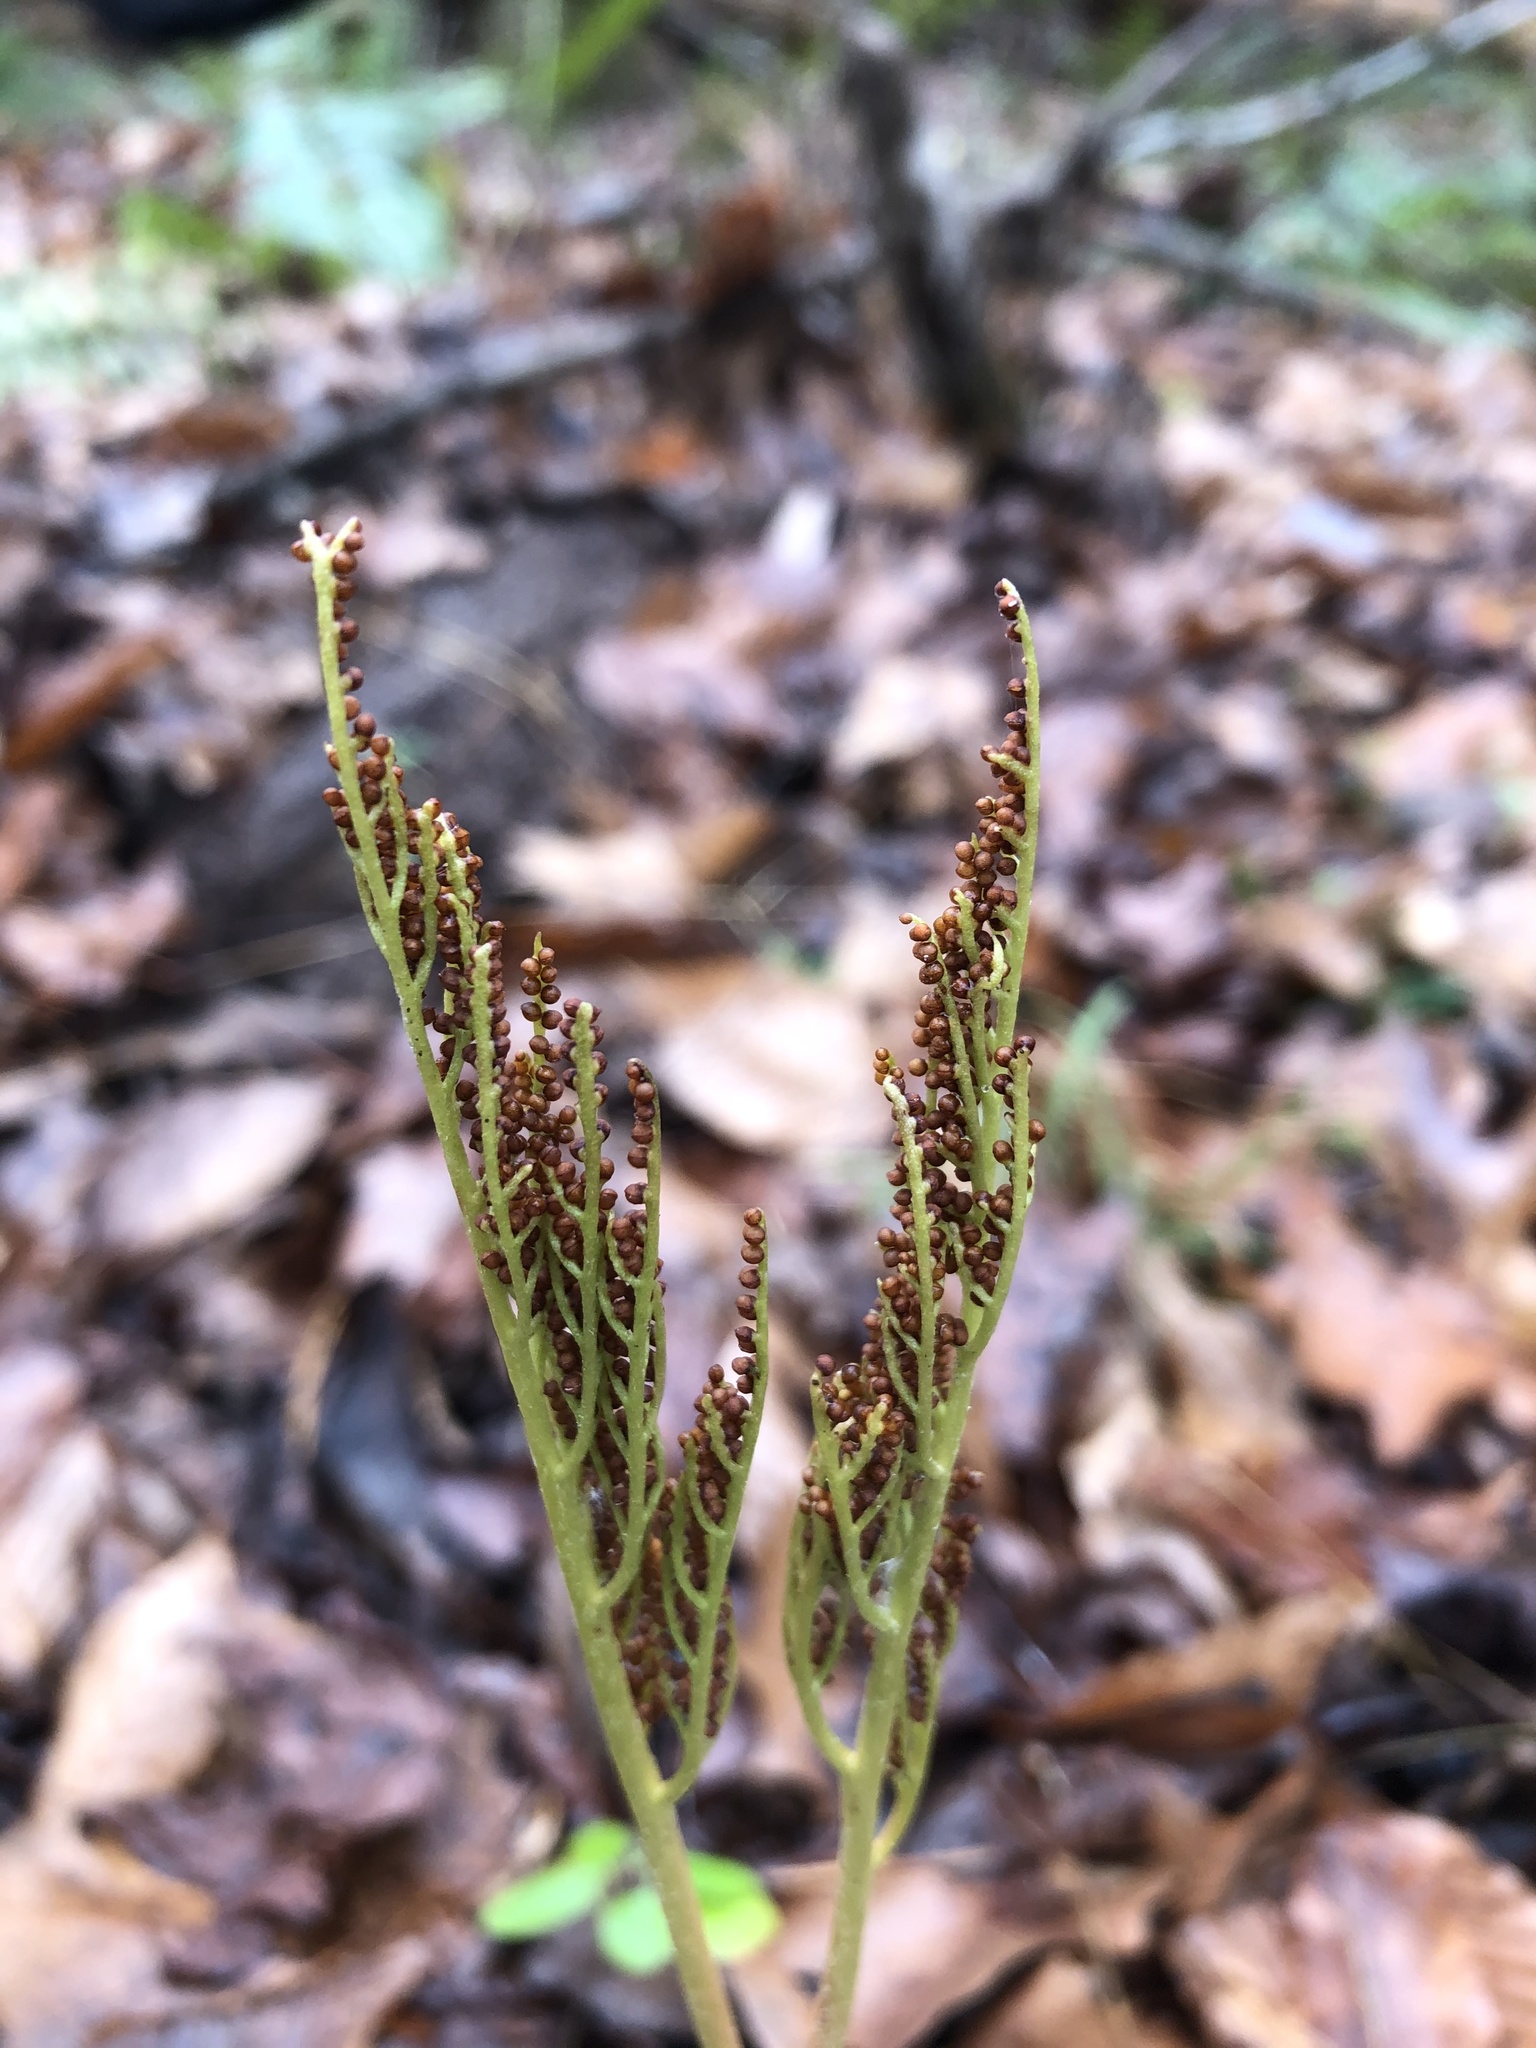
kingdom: Plantae
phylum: Tracheophyta
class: Polypodiopsida
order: Ophioglossales
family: Ophioglossaceae
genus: Sceptridium
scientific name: Sceptridium dissectum
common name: Cut-leaved grapefern
